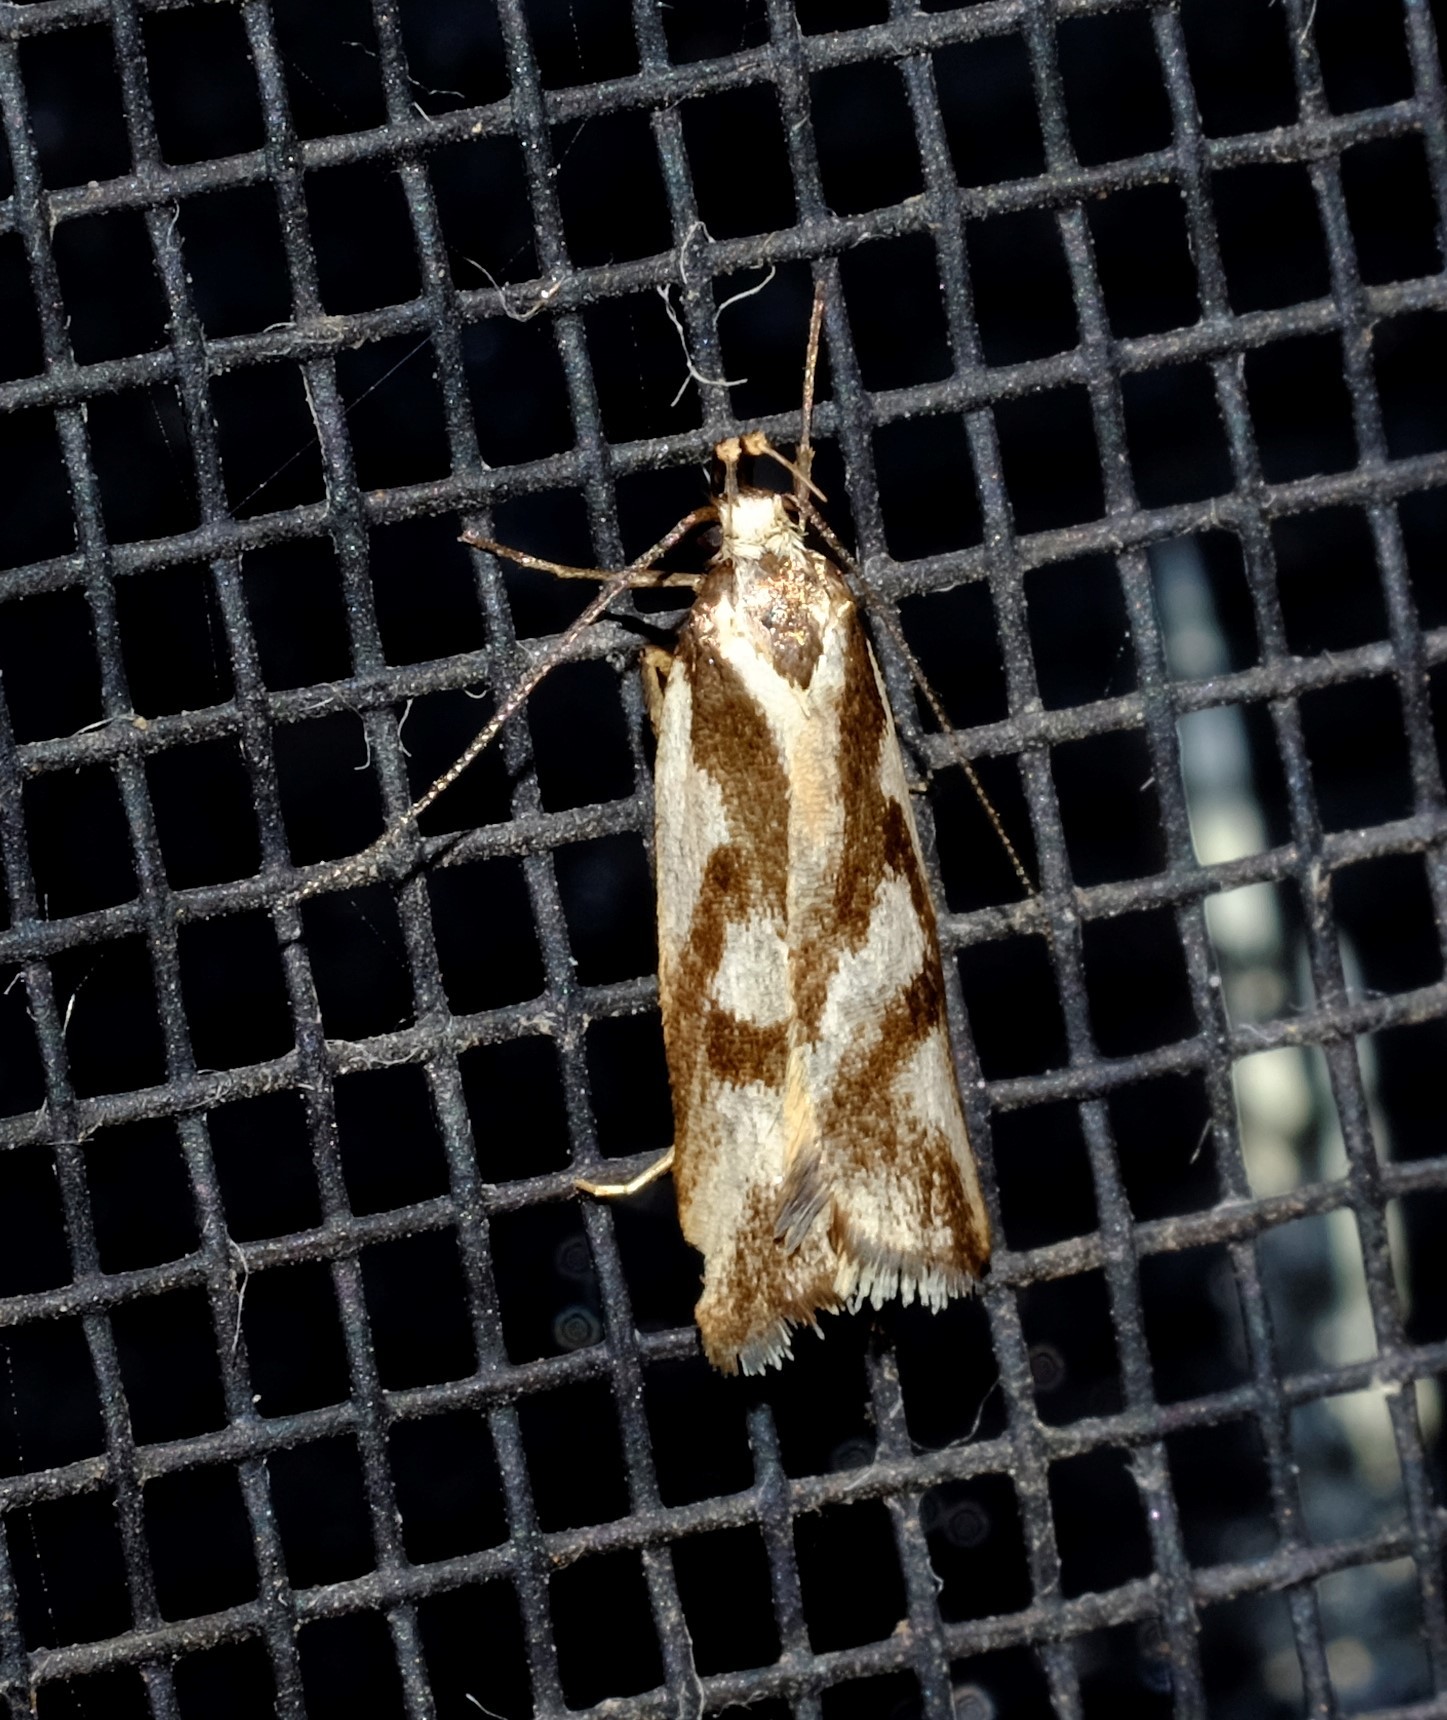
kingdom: Animalia
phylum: Arthropoda
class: Insecta
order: Lepidoptera
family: Oecophoridae
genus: Epithymema
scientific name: Epithymema incomposita
